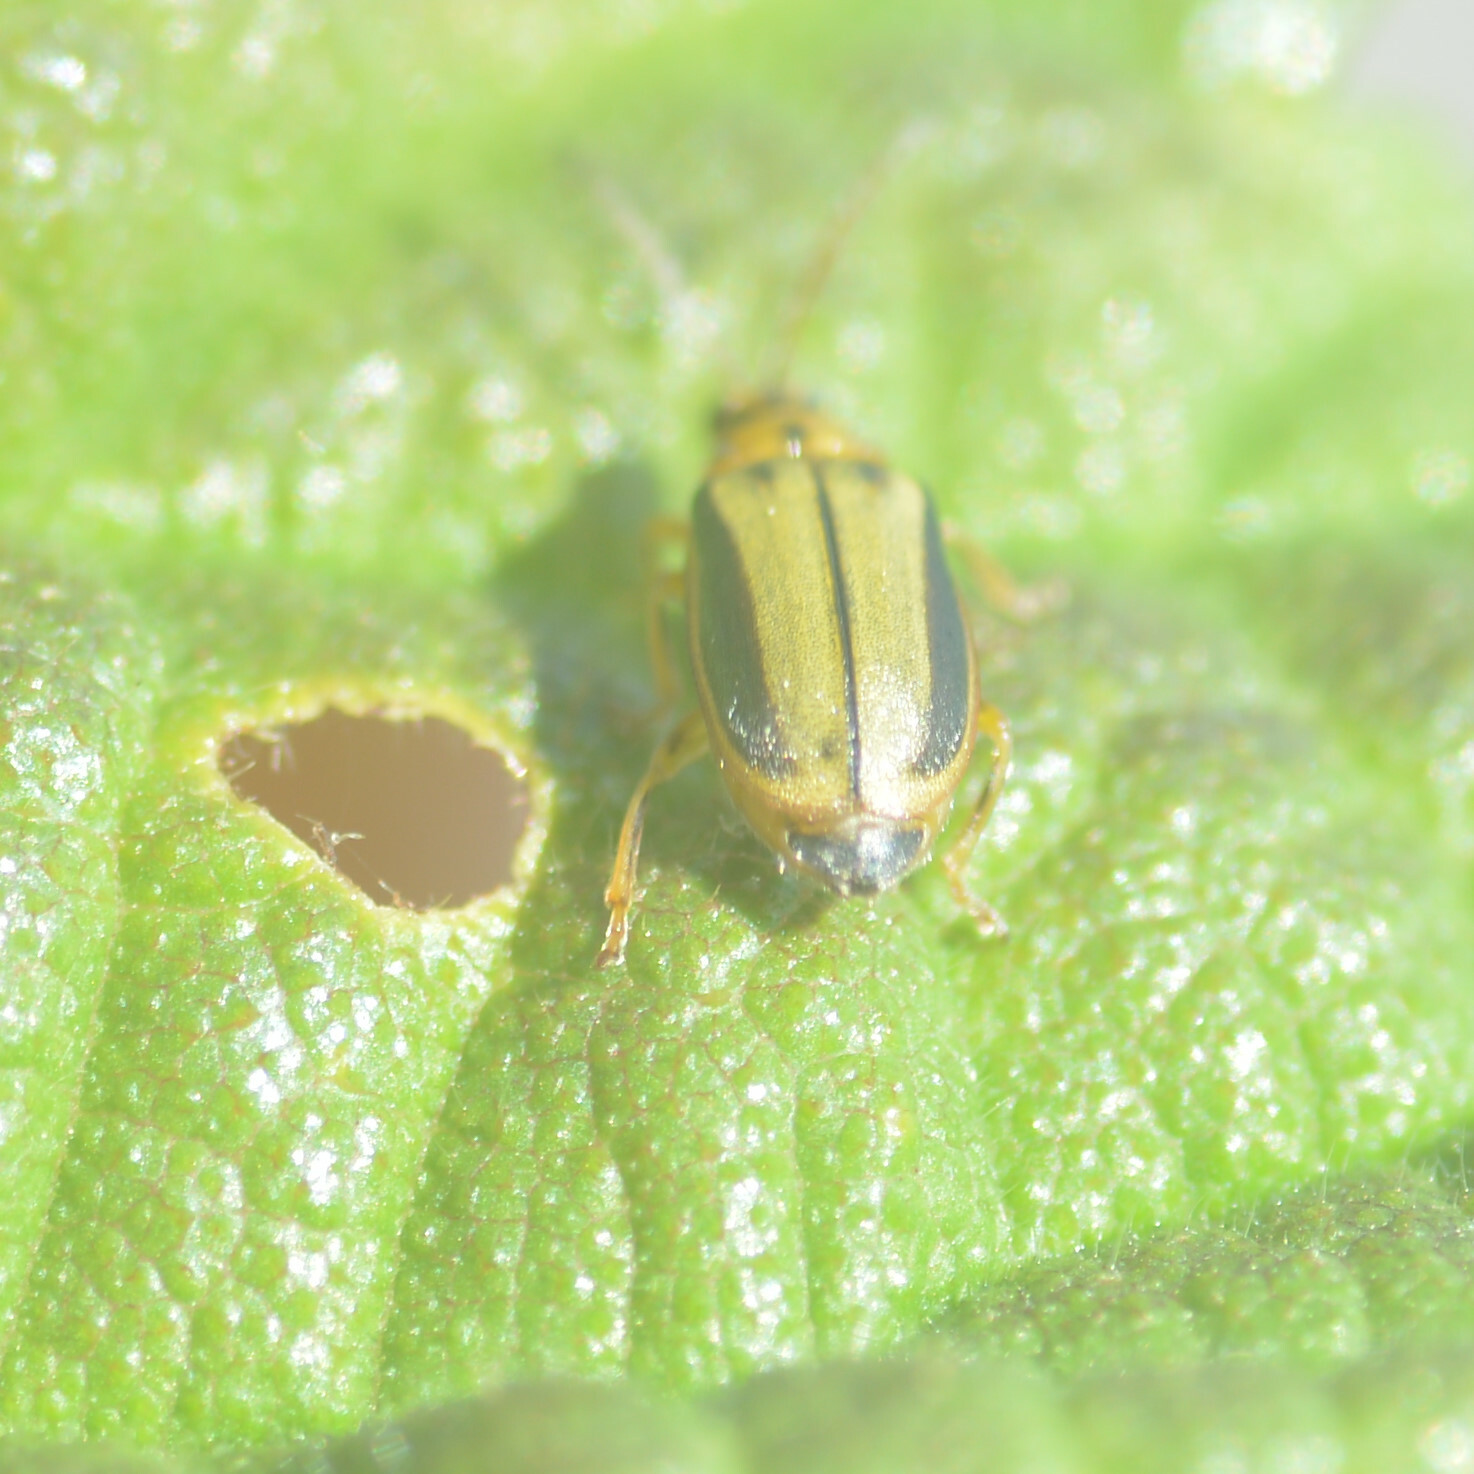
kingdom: Animalia
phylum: Arthropoda
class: Insecta
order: Coleoptera
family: Chrysomelidae
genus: Xanthogaleruca
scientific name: Xanthogaleruca luteola
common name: Elm leaf beetle
